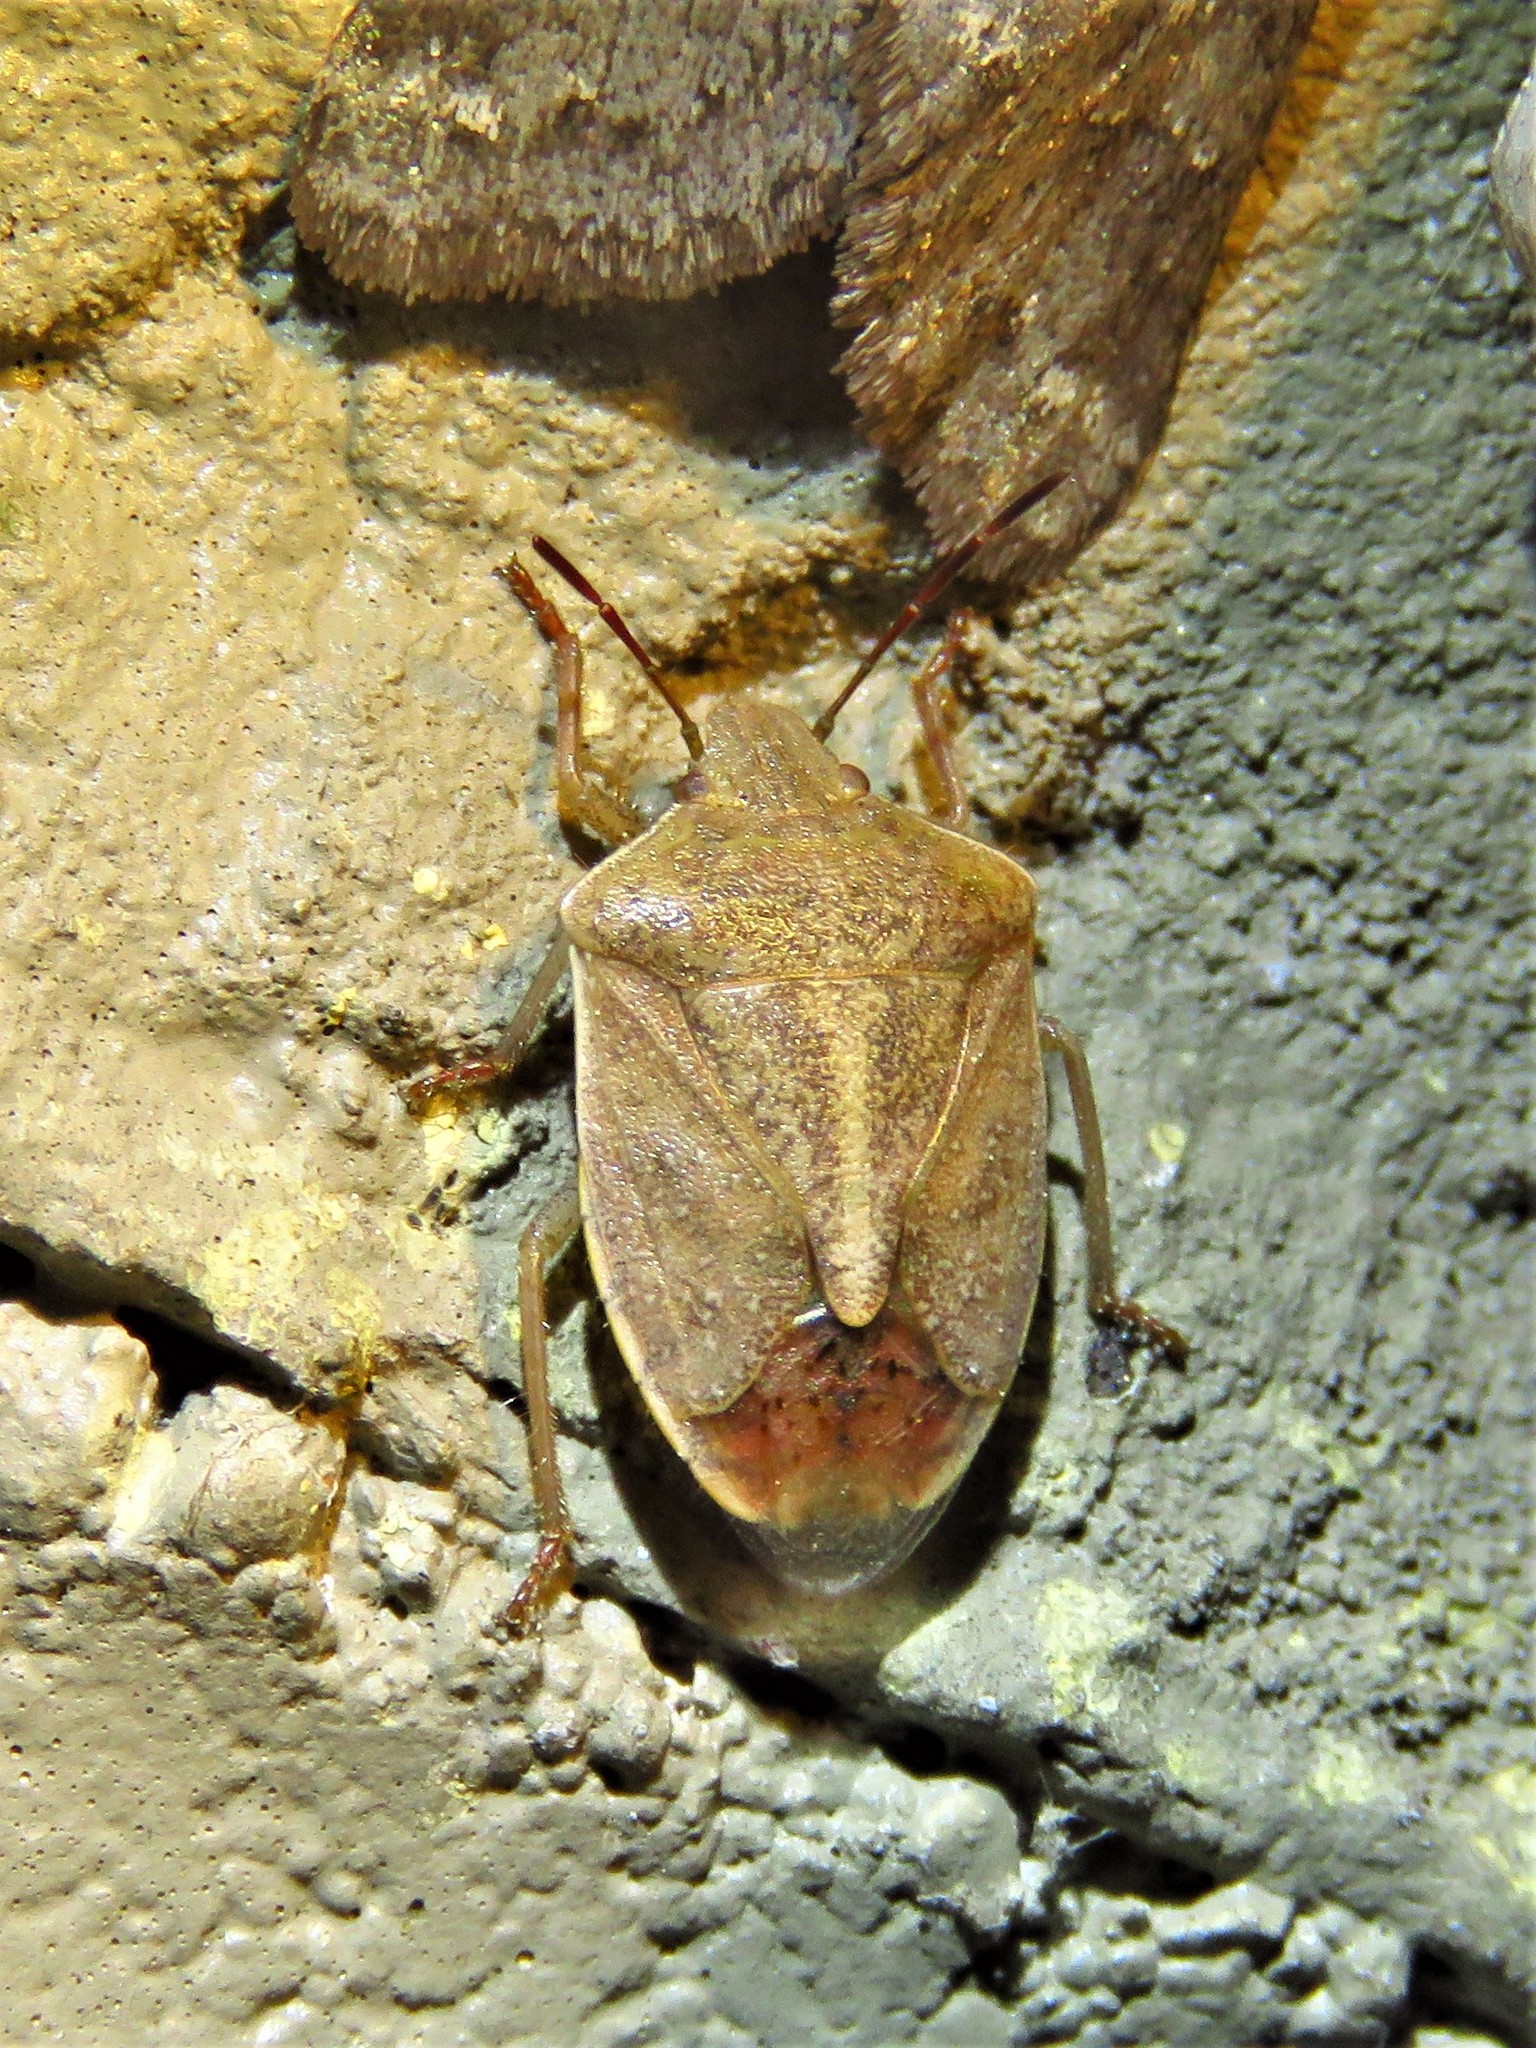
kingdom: Animalia
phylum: Arthropoda
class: Insecta
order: Hemiptera
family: Pentatomidae
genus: Thyanta
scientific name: Thyanta accerra
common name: Stink bug
